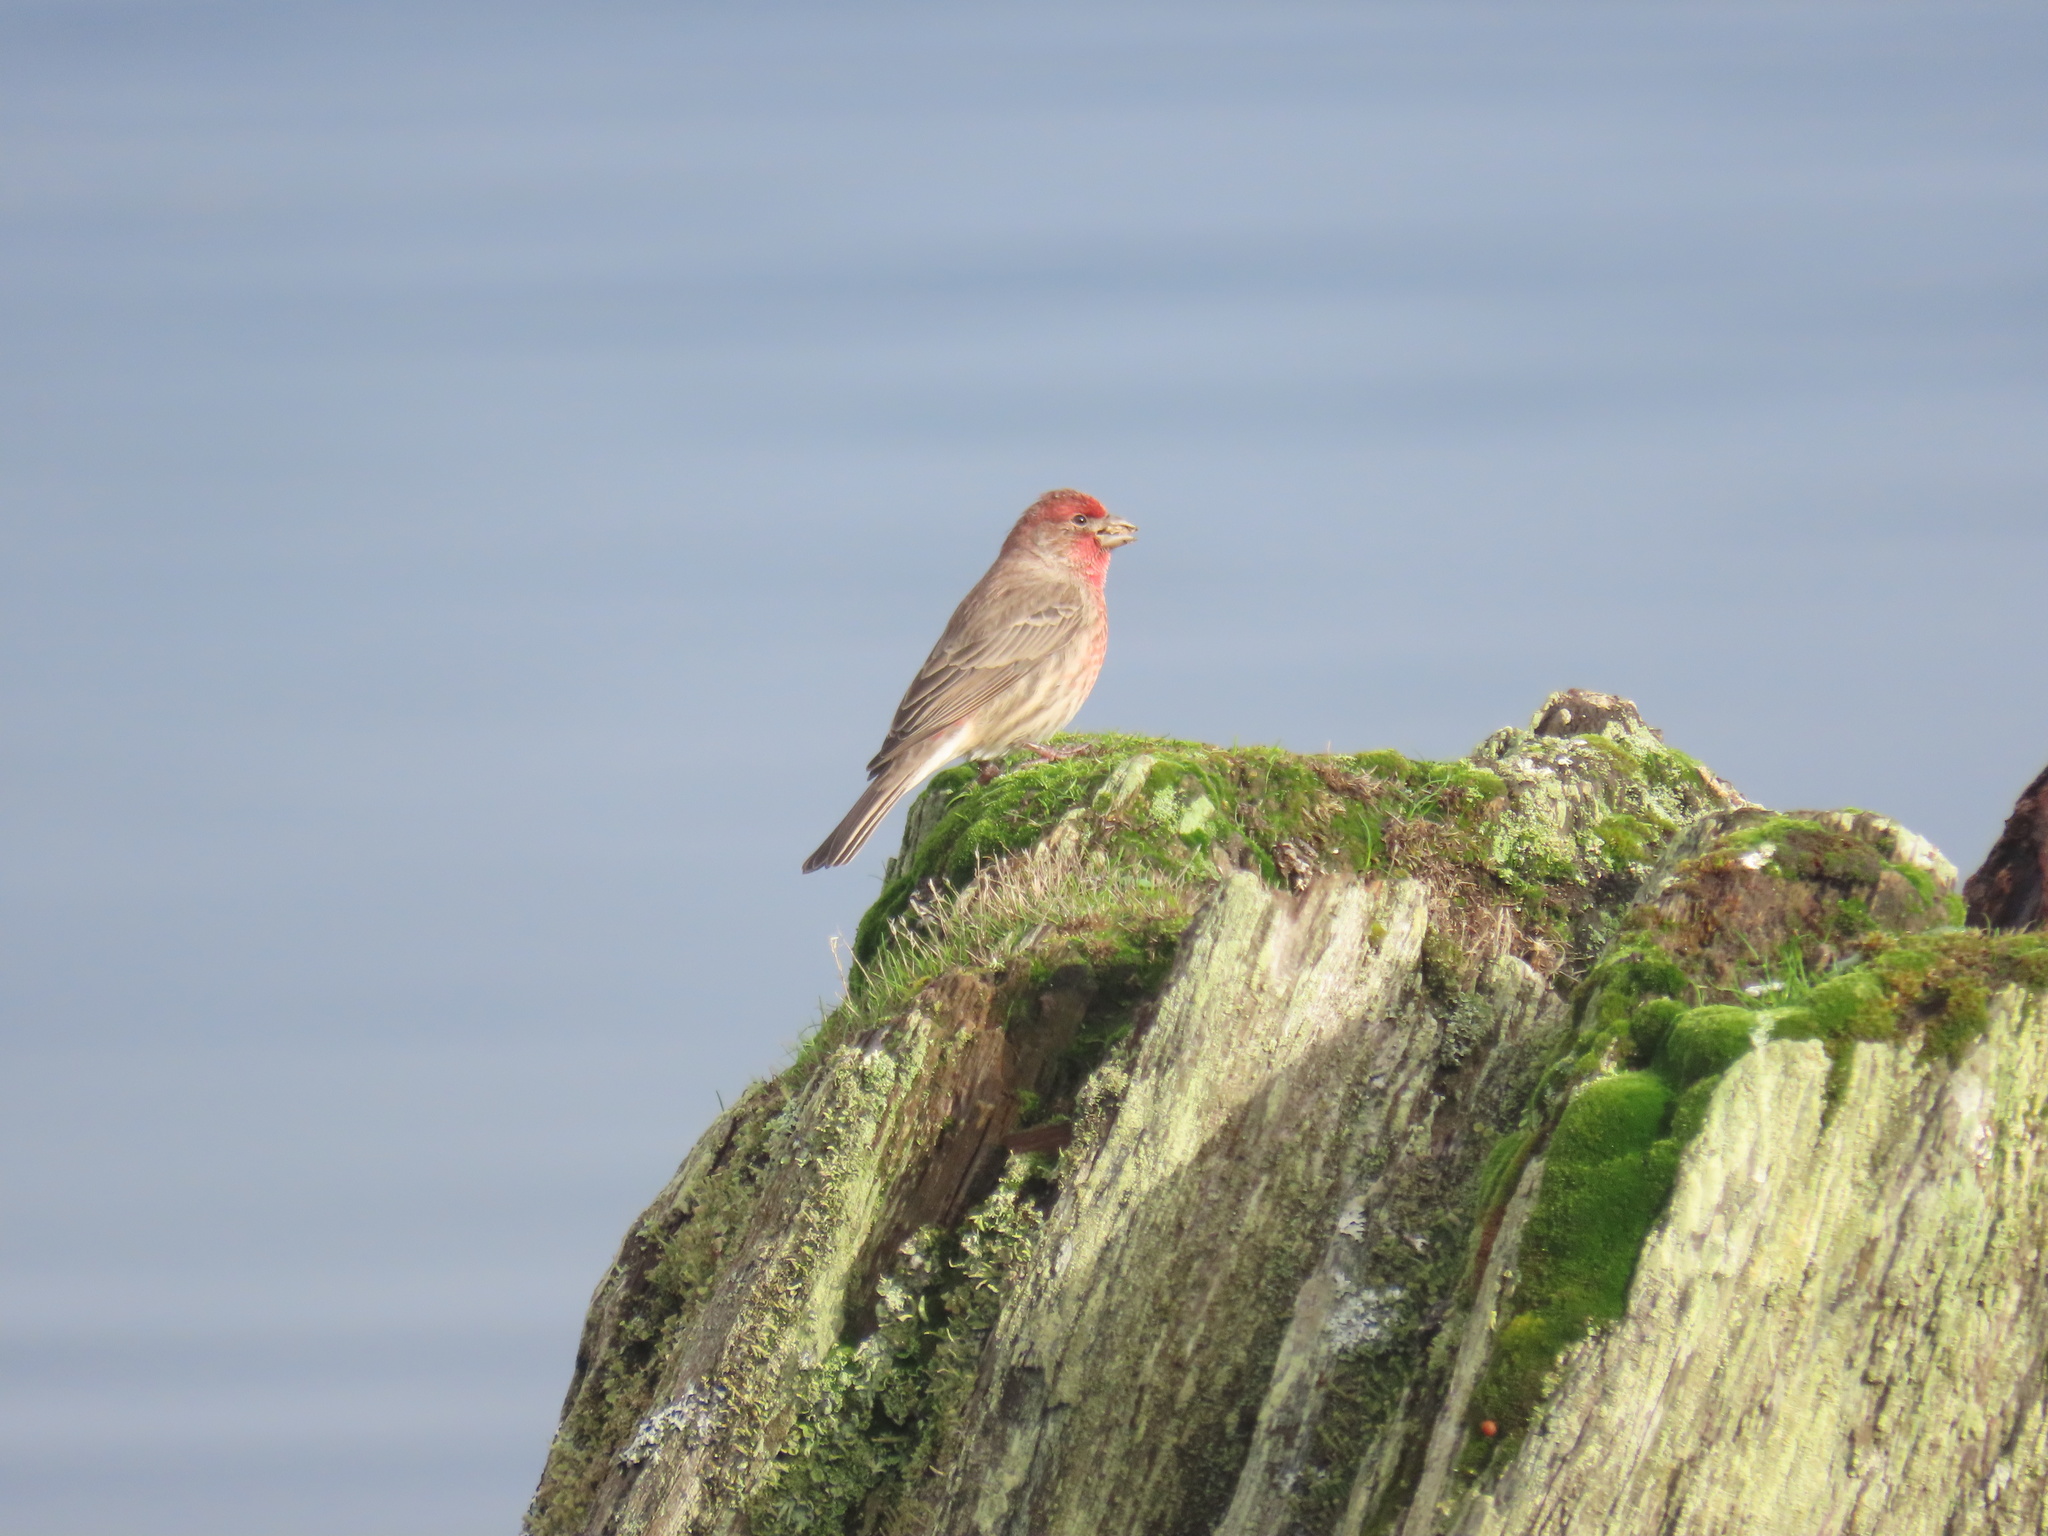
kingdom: Animalia
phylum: Chordata
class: Aves
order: Passeriformes
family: Fringillidae
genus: Haemorhous
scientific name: Haemorhous mexicanus
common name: House finch
